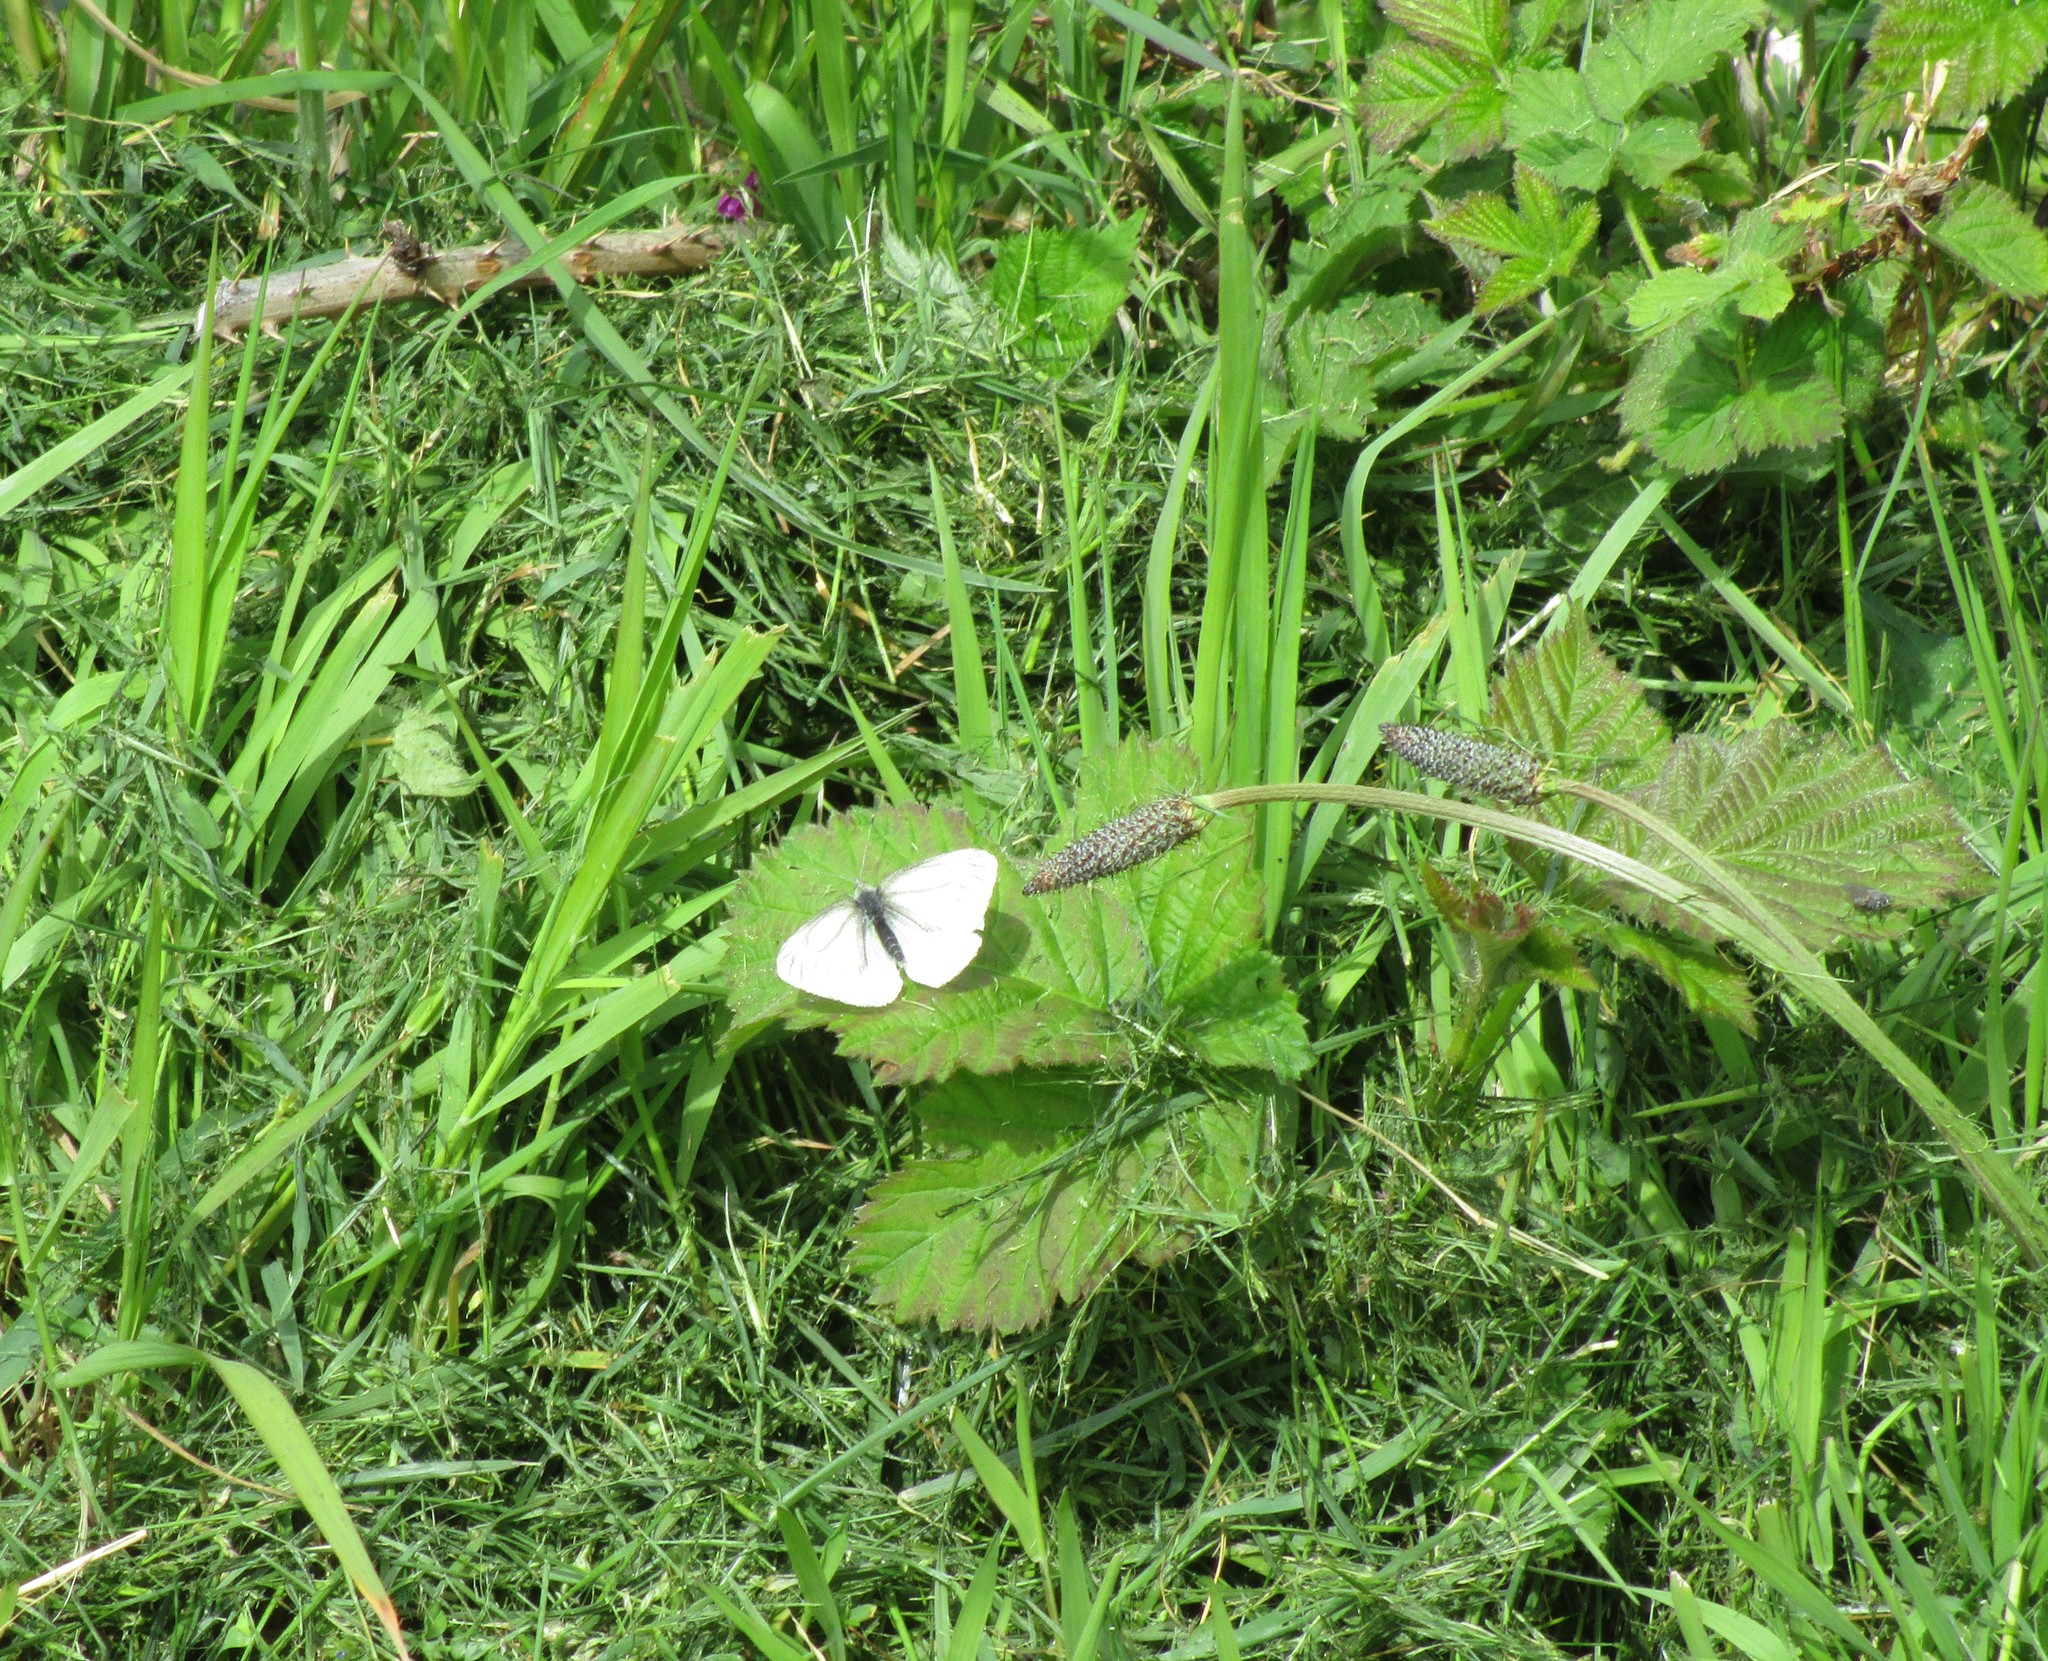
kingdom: Animalia
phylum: Arthropoda
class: Insecta
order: Lepidoptera
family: Pieridae
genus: Pieris
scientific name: Pieris marginalis
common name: Margined white
